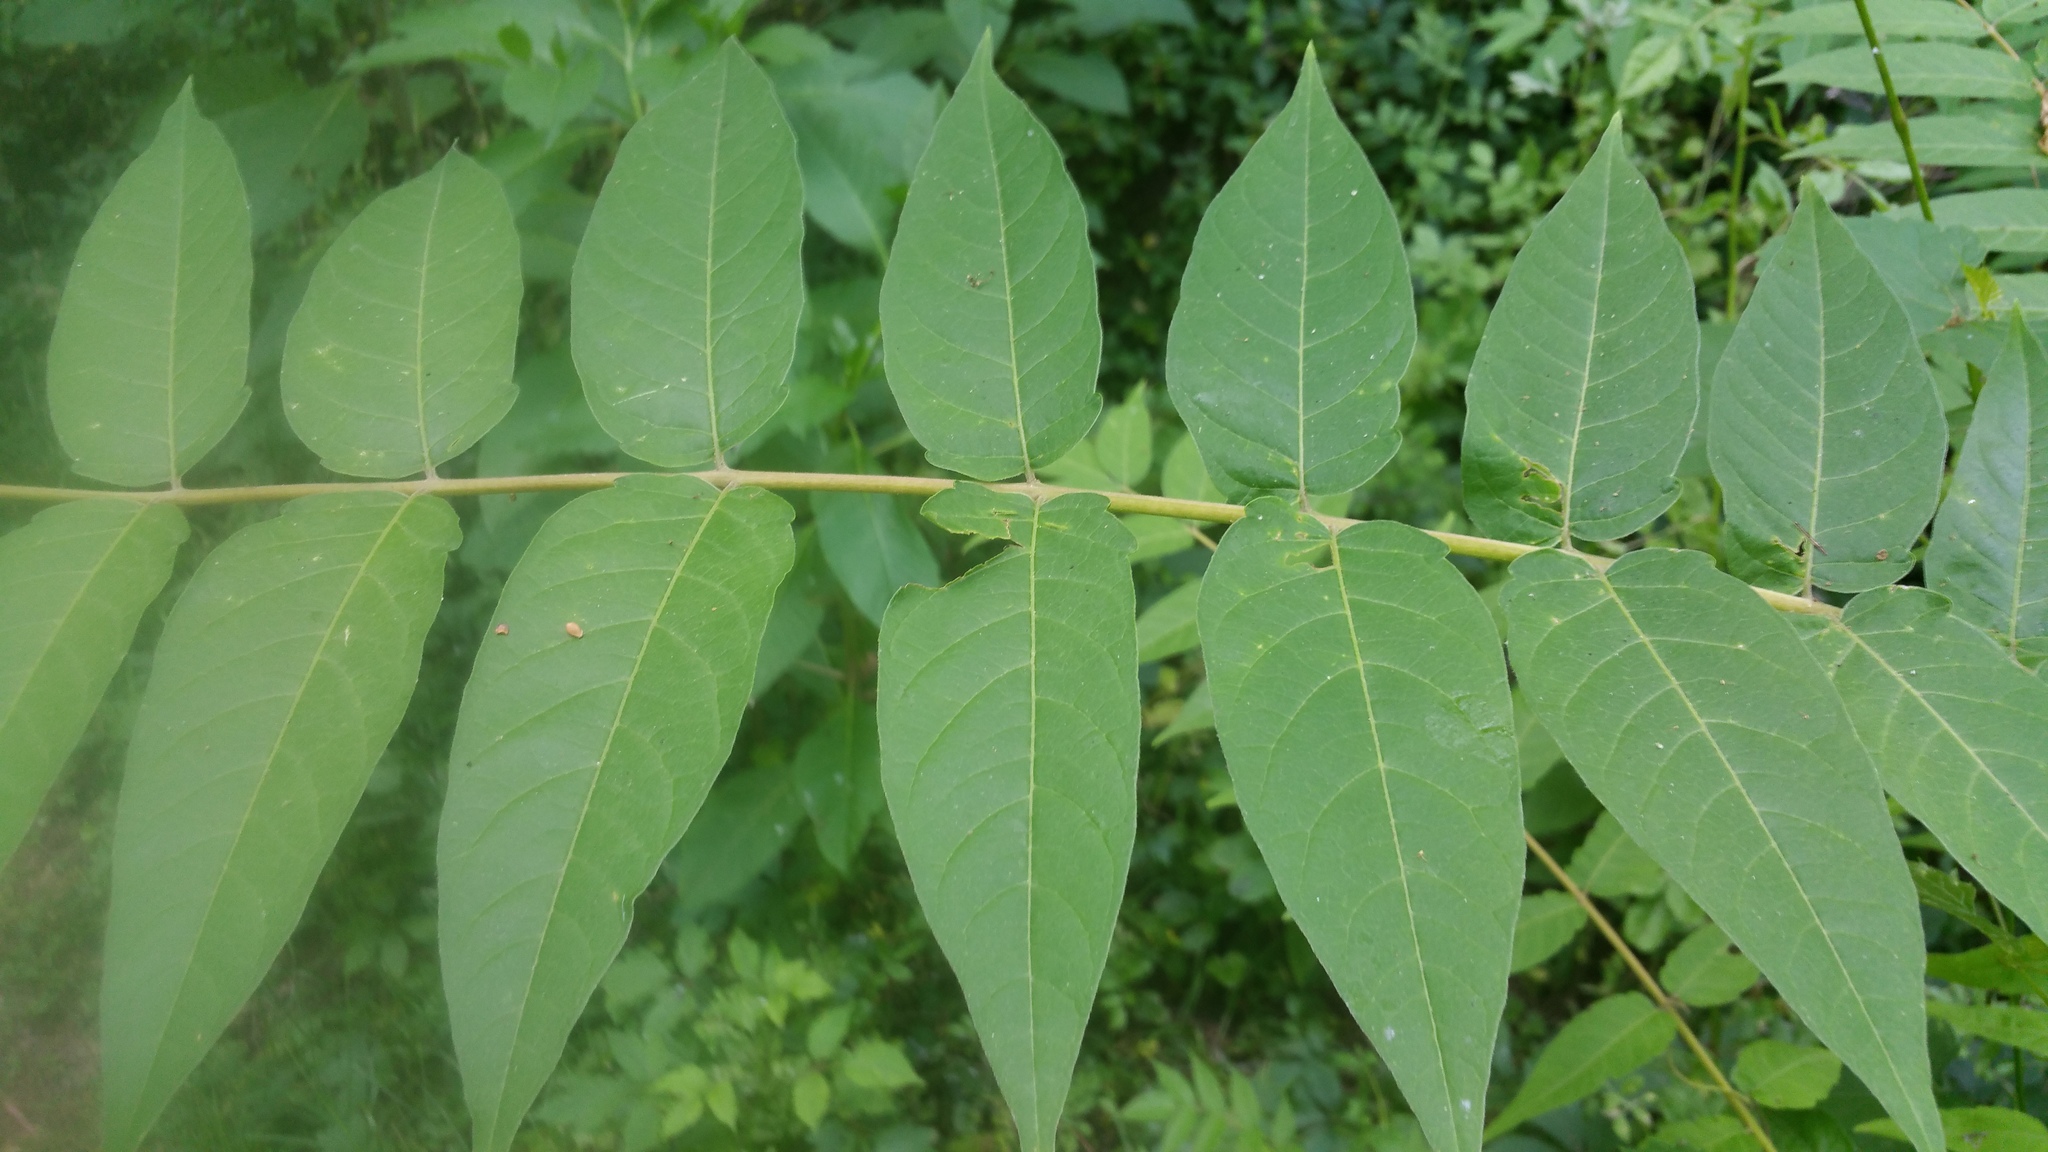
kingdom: Plantae
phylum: Tracheophyta
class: Magnoliopsida
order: Sapindales
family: Simaroubaceae
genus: Ailanthus
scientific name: Ailanthus altissima
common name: Tree-of-heaven
